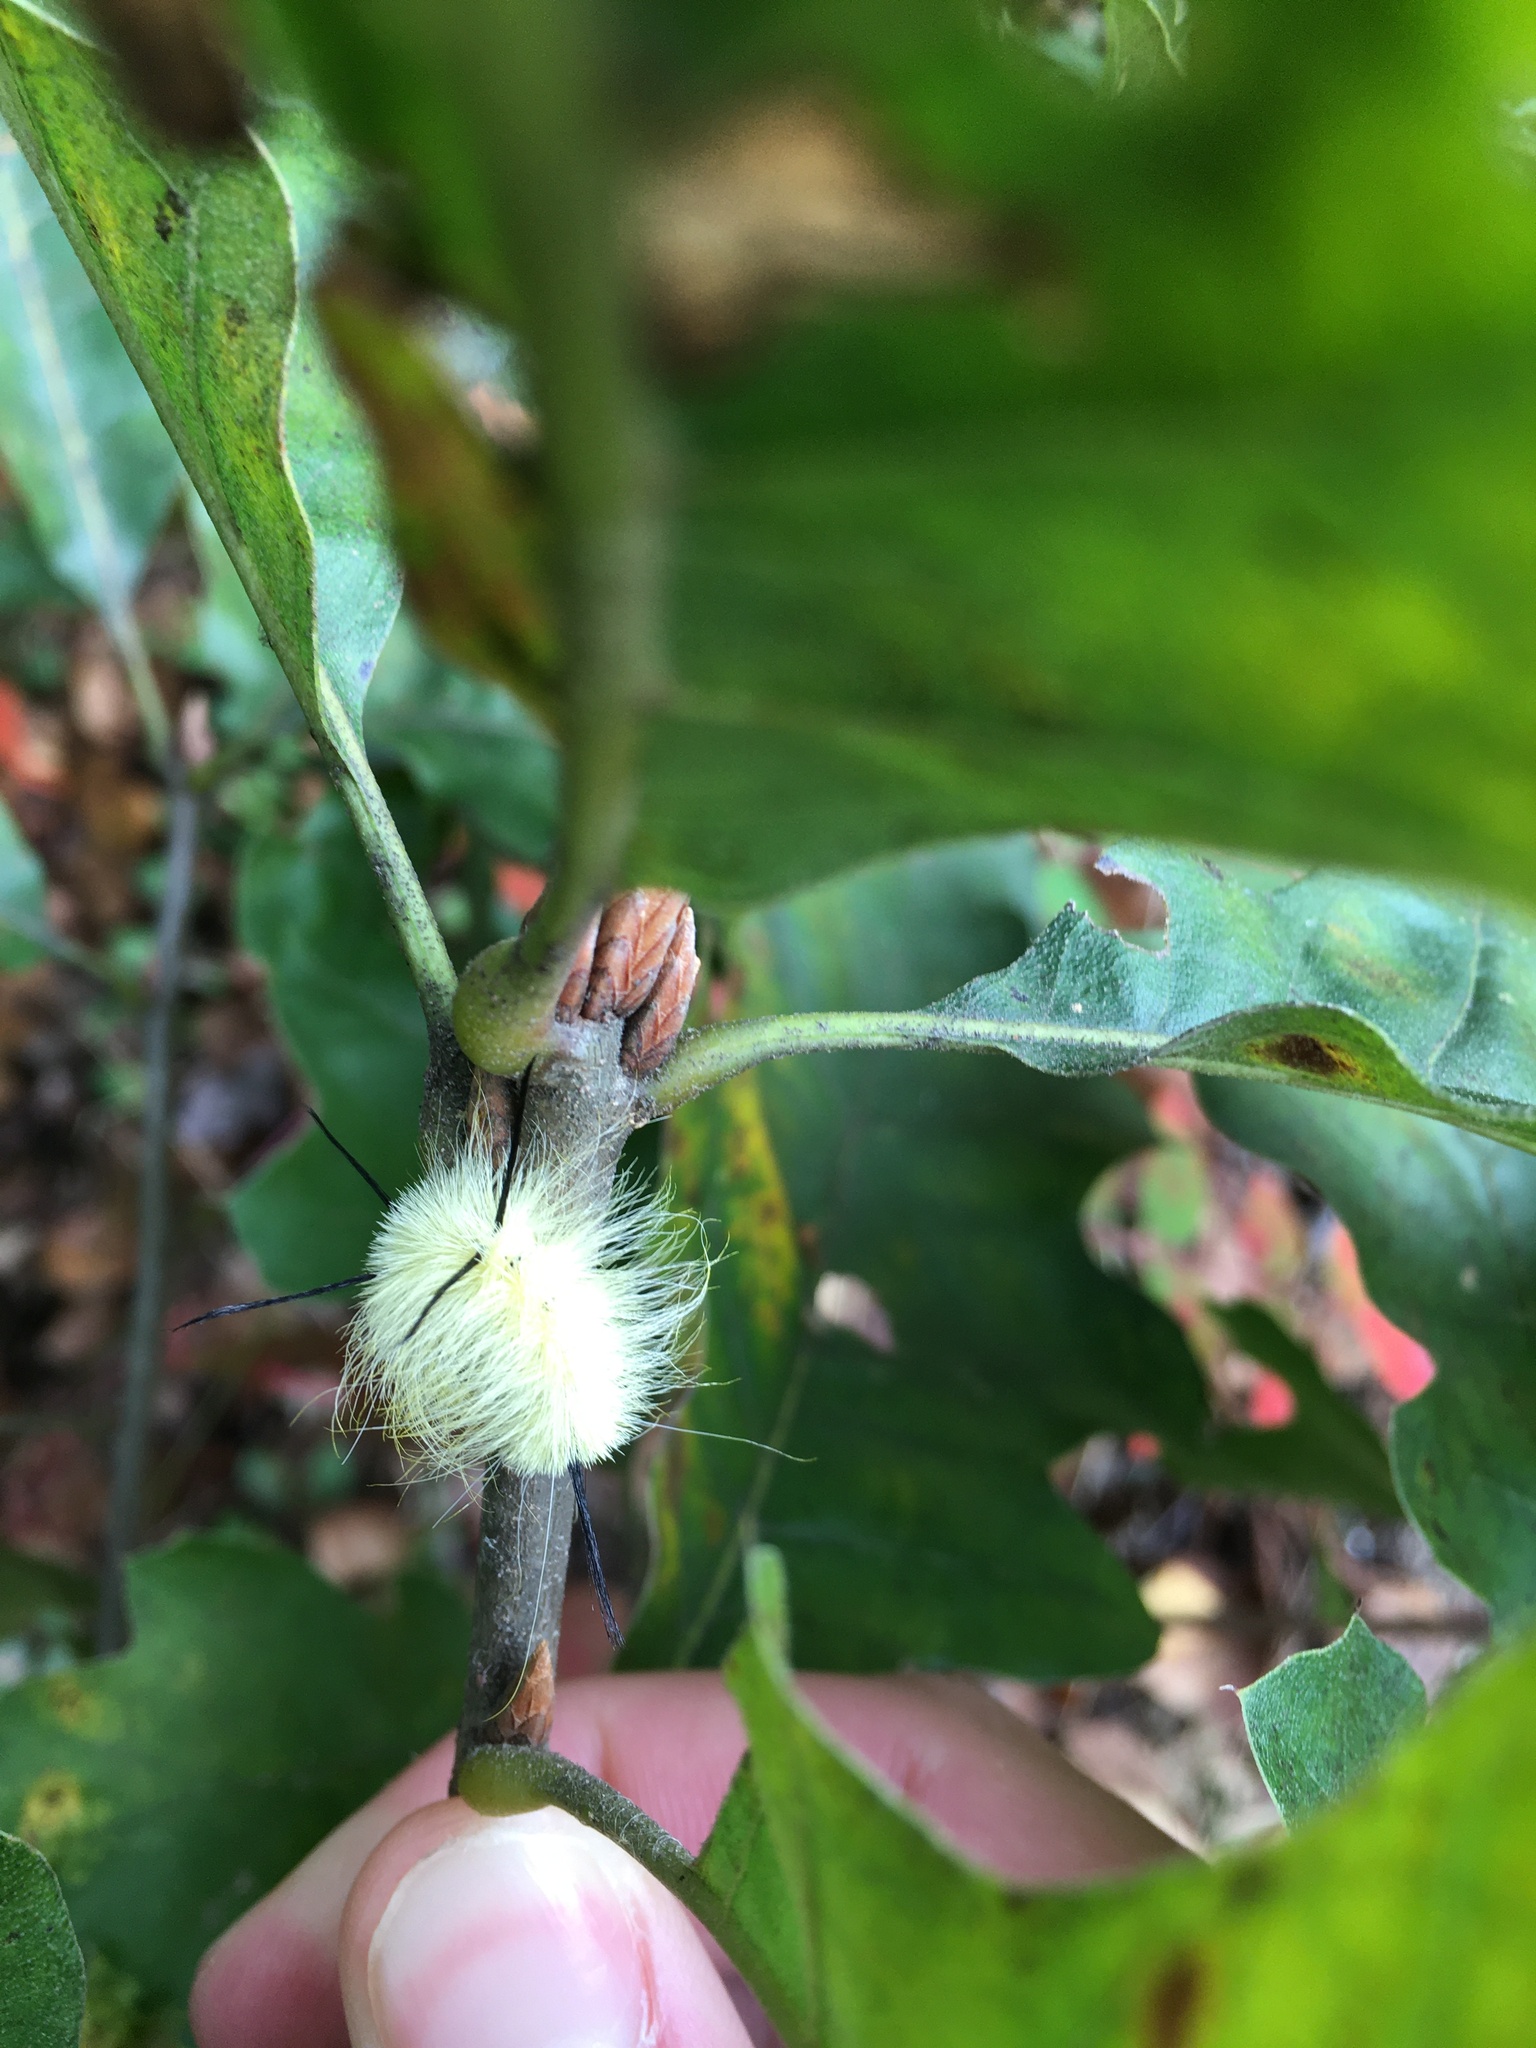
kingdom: Animalia
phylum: Arthropoda
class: Insecta
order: Lepidoptera
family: Noctuidae
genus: Acronicta
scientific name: Acronicta americana
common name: American dagger
